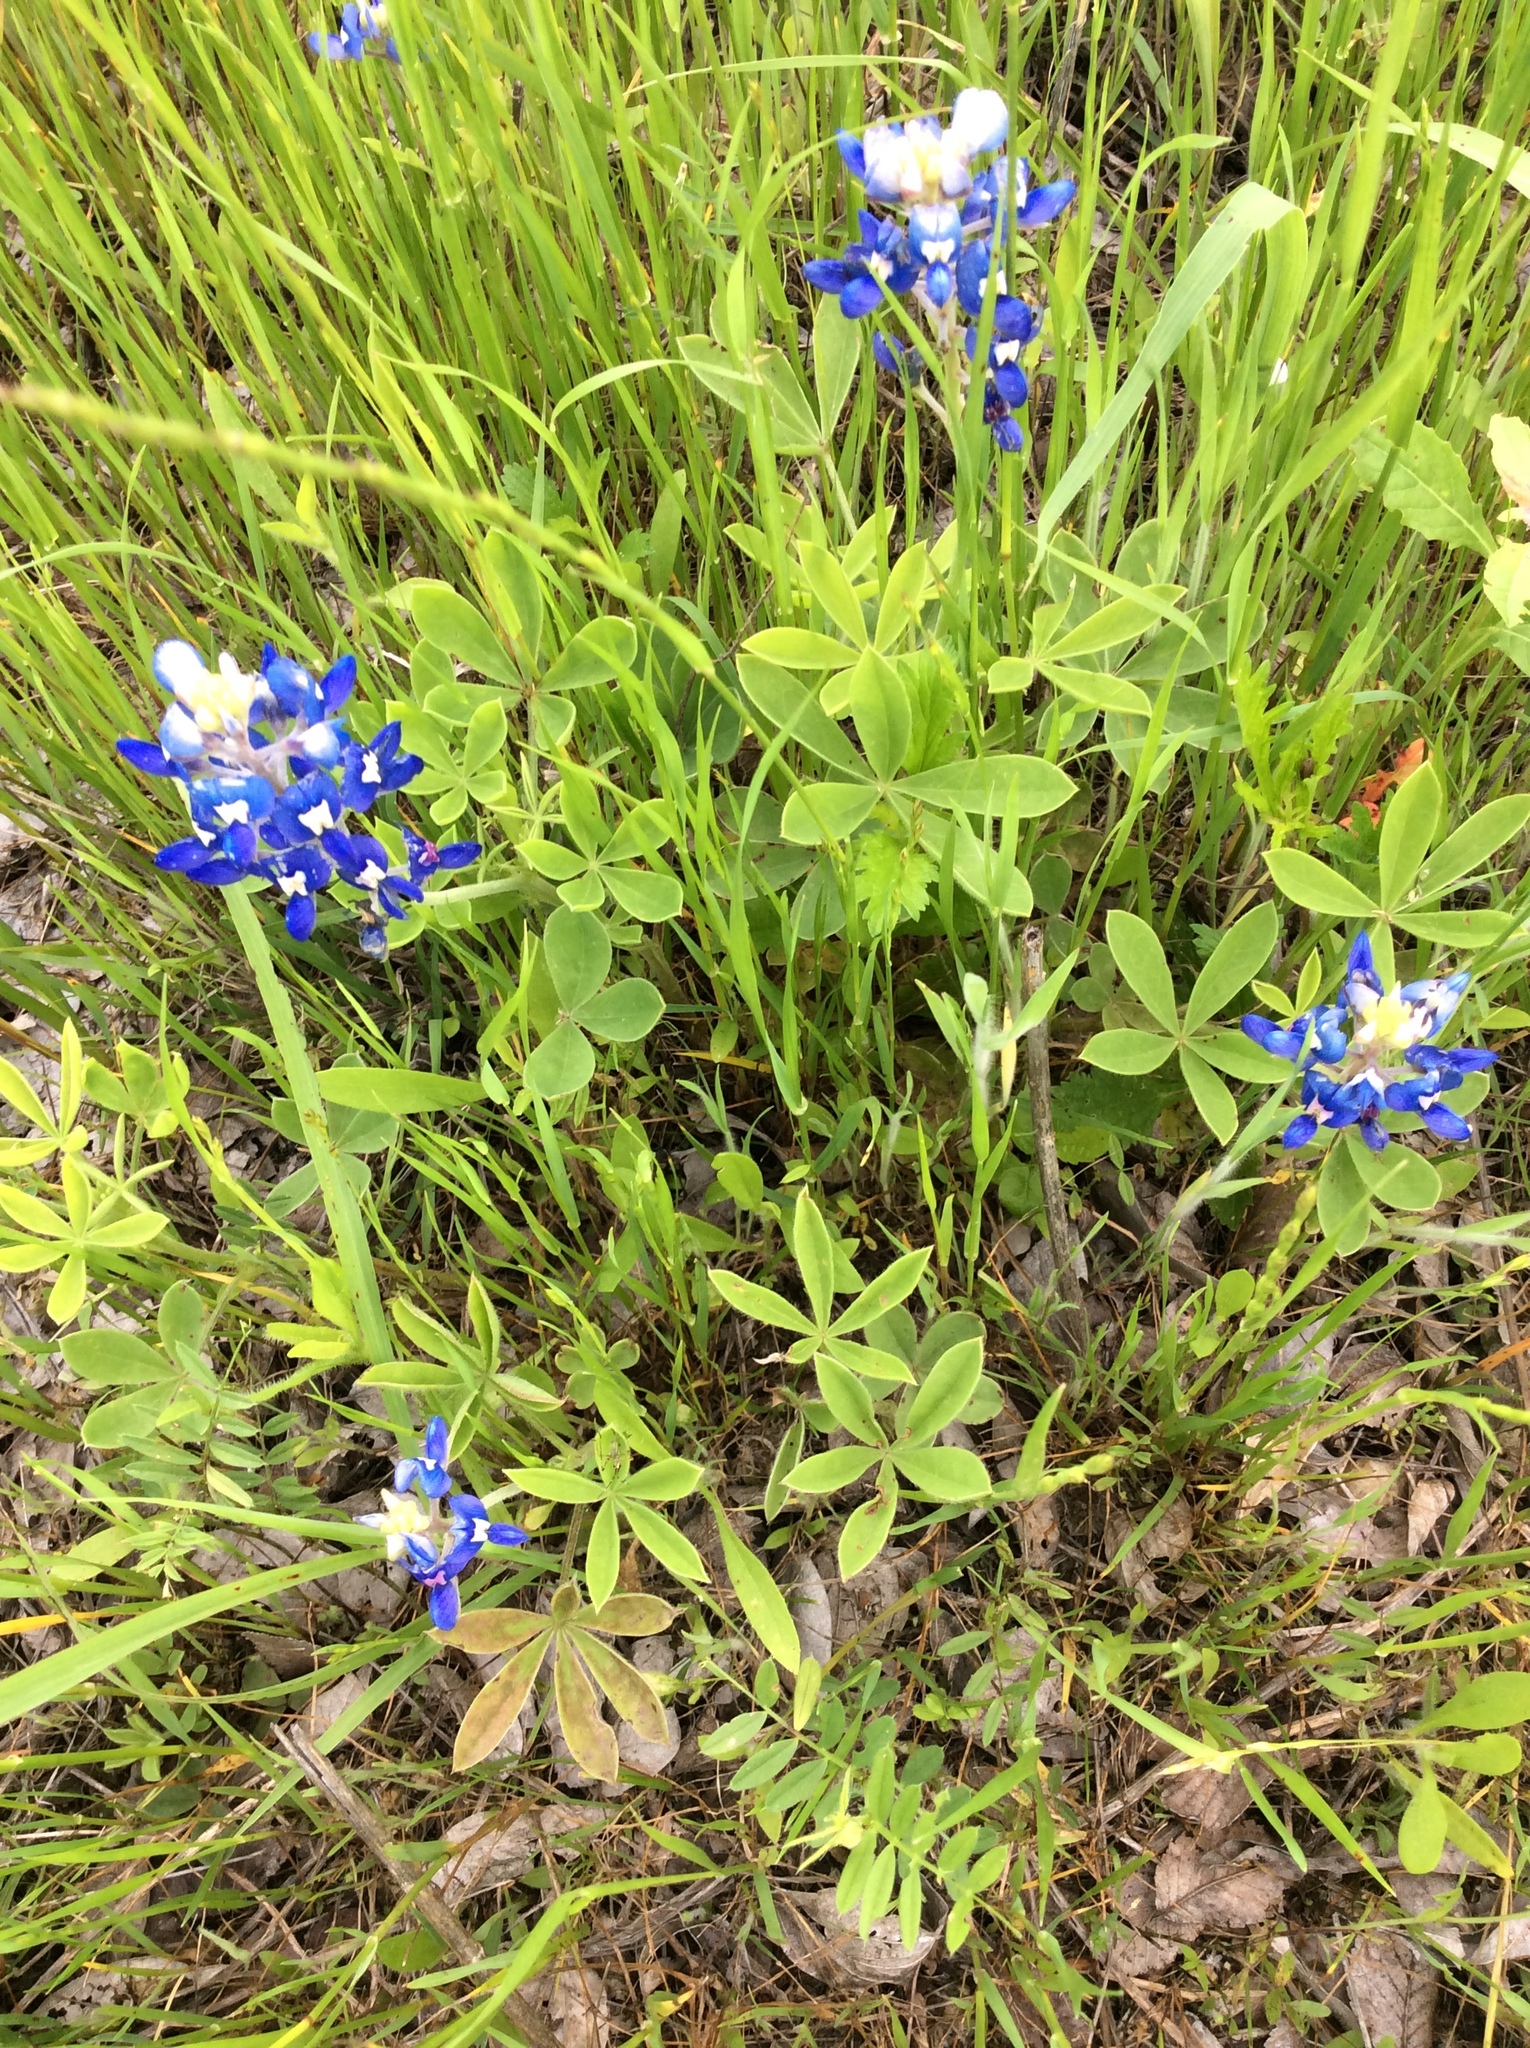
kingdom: Plantae
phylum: Tracheophyta
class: Magnoliopsida
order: Fabales
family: Fabaceae
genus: Lupinus
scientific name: Lupinus texensis
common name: Texas bluebonnet
